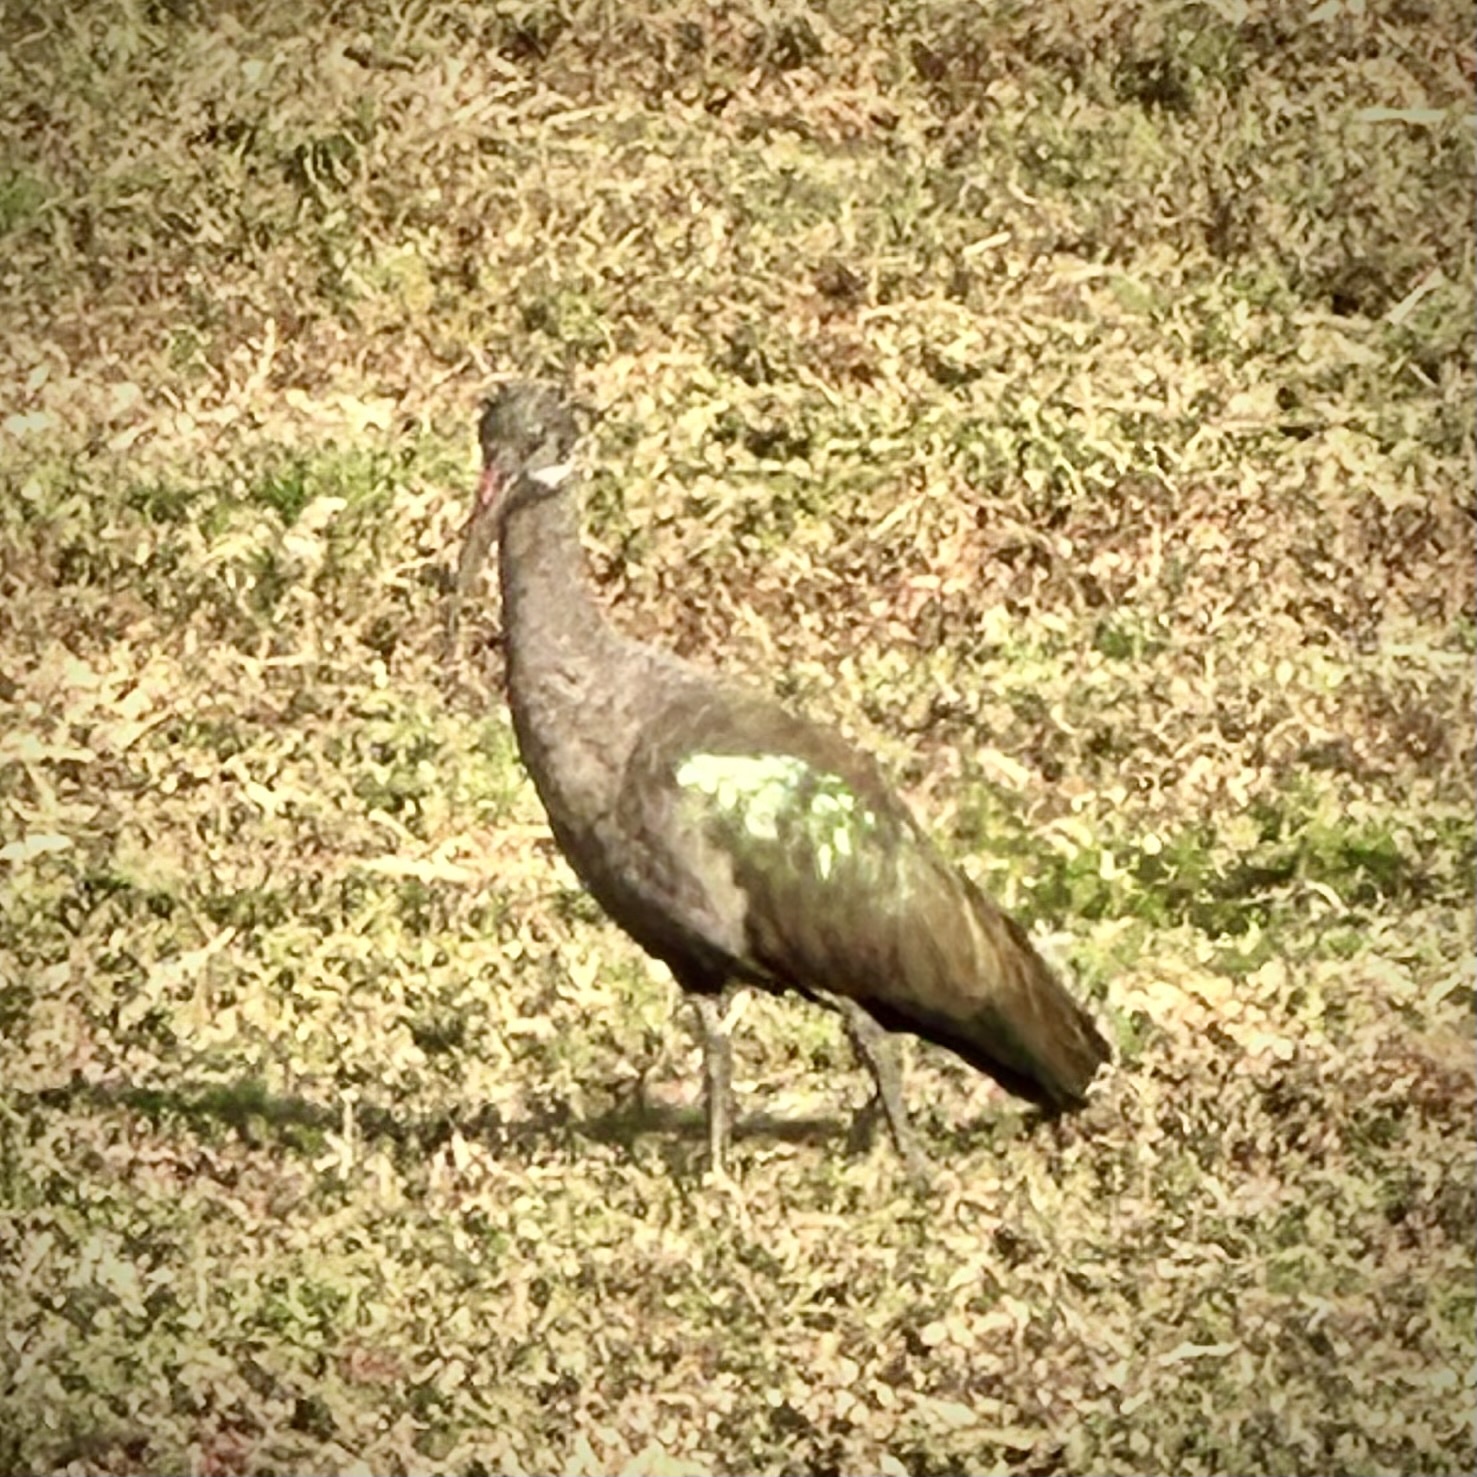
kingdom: Animalia
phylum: Chordata
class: Aves
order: Pelecaniformes
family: Threskiornithidae
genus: Bostrychia
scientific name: Bostrychia hagedash
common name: Hadada ibis
